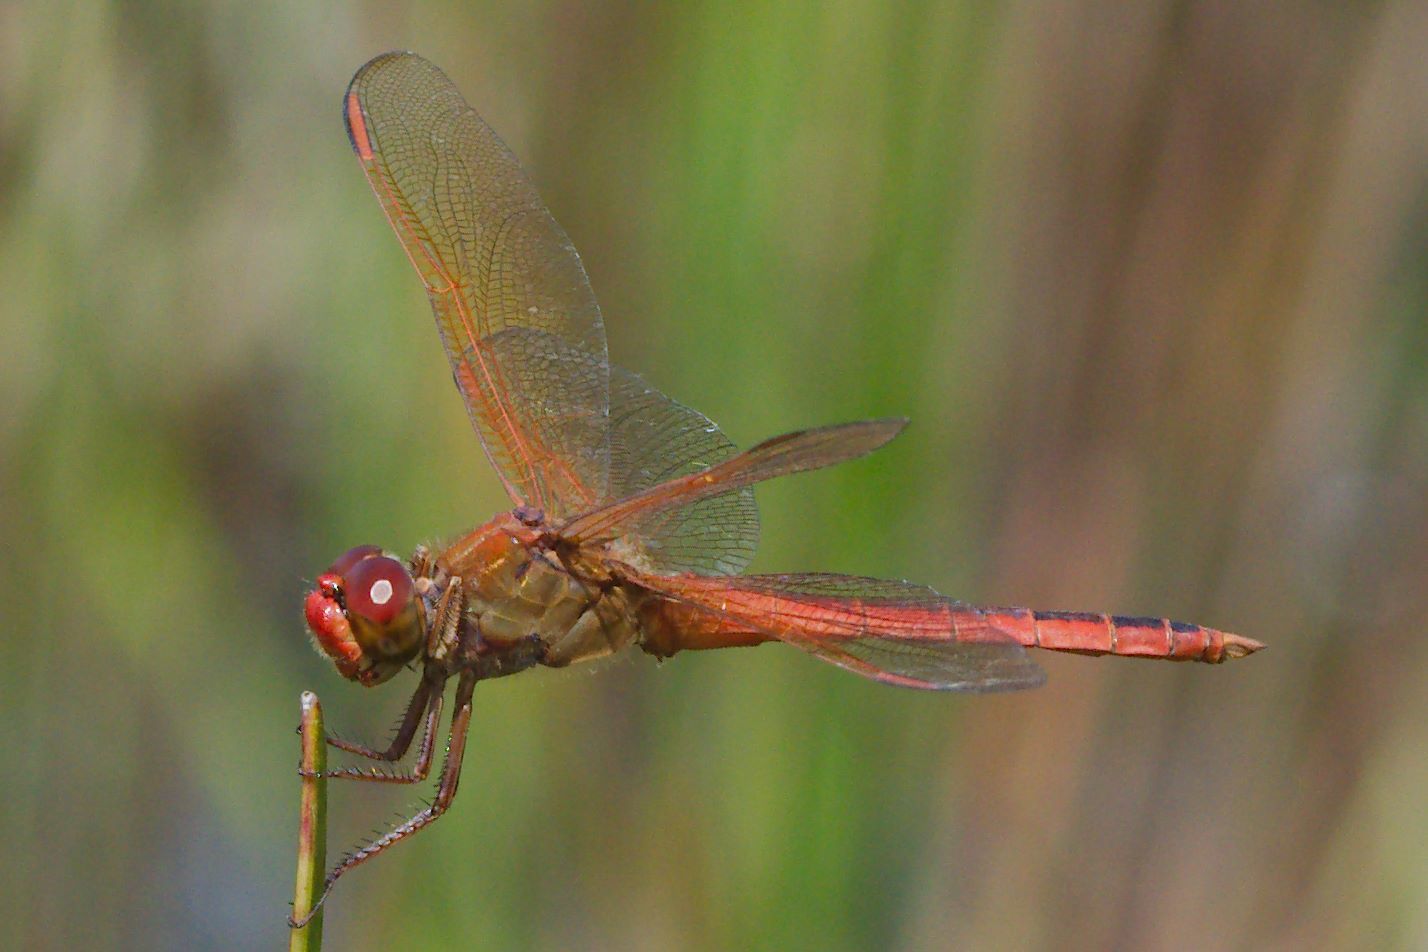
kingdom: Animalia
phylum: Arthropoda
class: Insecta
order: Odonata
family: Libellulidae
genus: Libellula
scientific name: Libellula needhami
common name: Needham's skimmer
